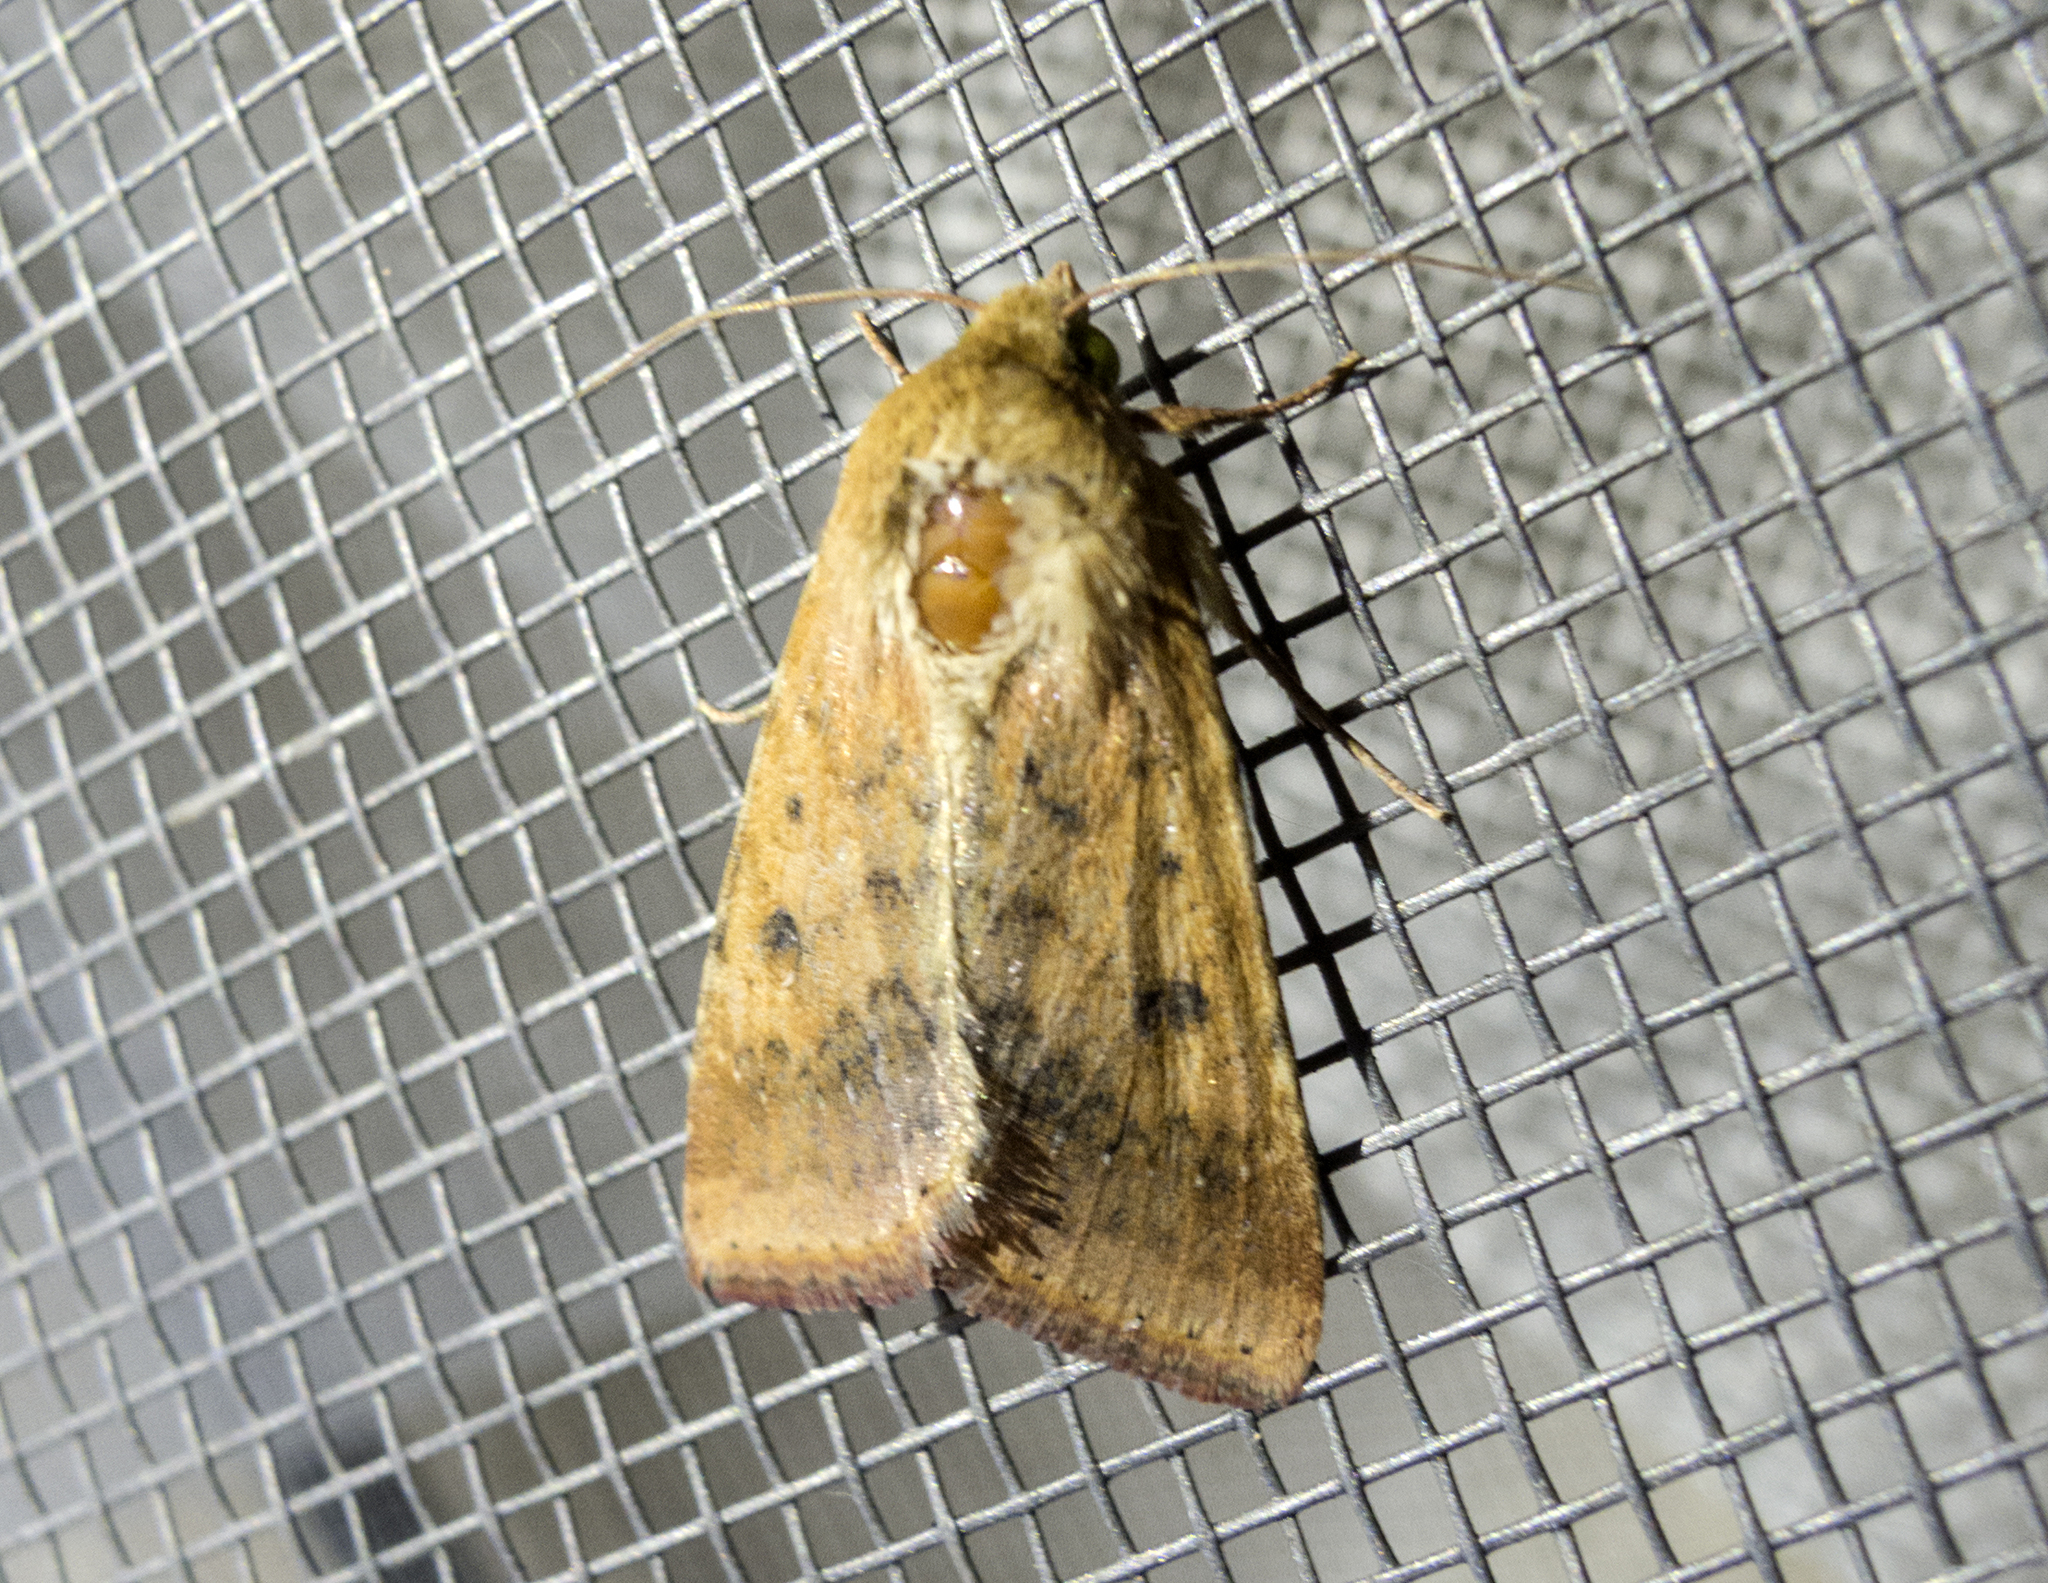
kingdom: Animalia
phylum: Arthropoda
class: Insecta
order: Lepidoptera
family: Noctuidae
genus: Helicoverpa
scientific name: Helicoverpa armigera
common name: Cotton bollworm
